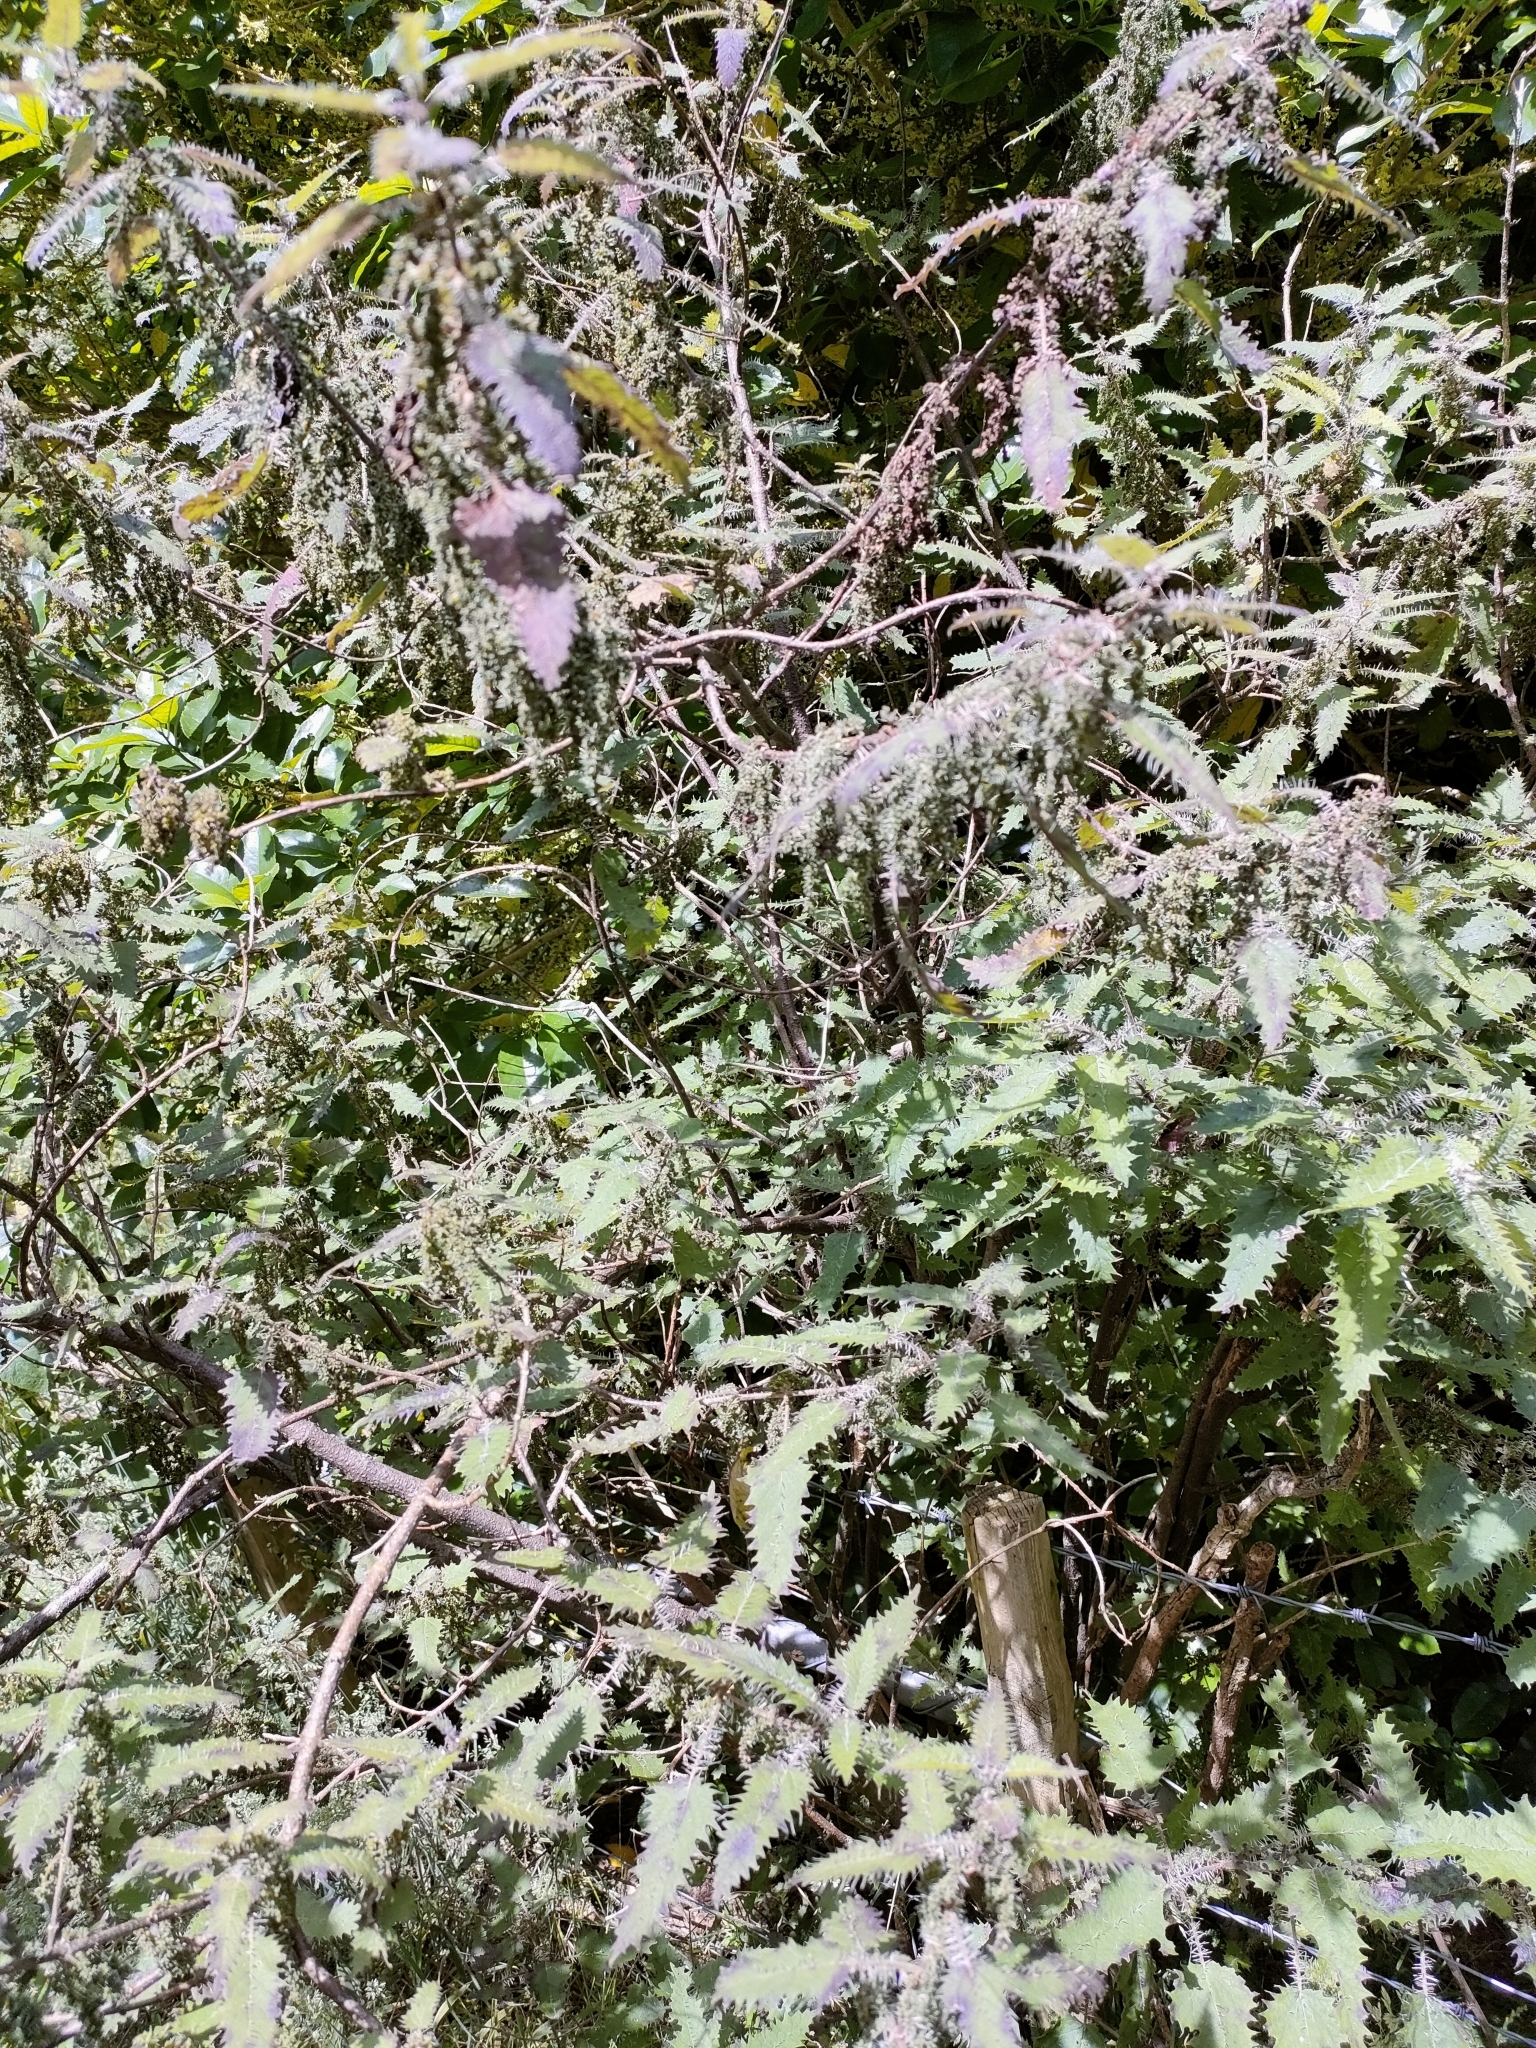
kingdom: Plantae
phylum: Tracheophyta
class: Magnoliopsida
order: Rosales
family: Urticaceae
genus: Urtica
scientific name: Urtica ferox
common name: Tree nettle
